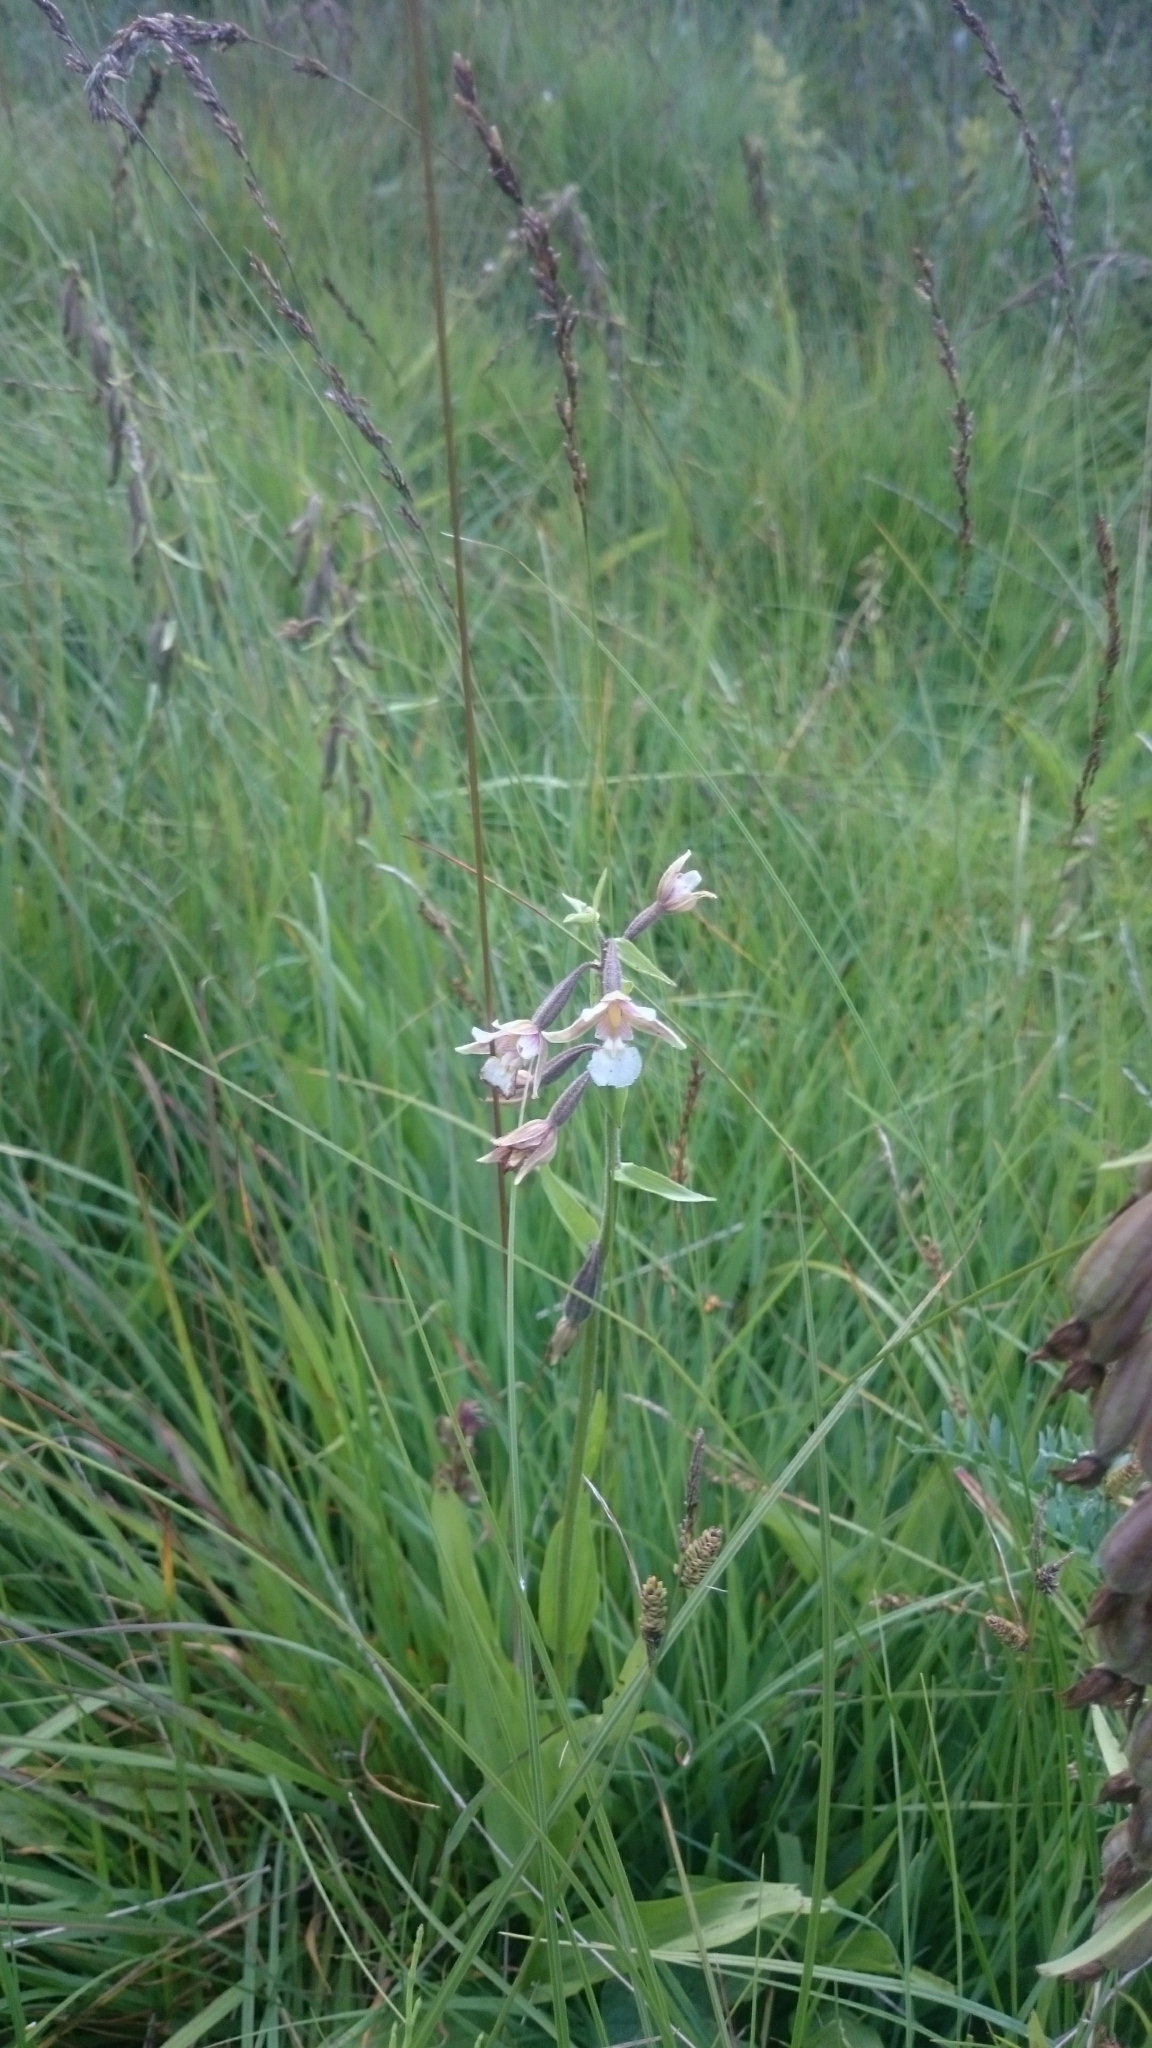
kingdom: Plantae
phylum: Tracheophyta
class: Liliopsida
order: Asparagales
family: Orchidaceae
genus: Epipactis
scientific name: Epipactis palustris
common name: Marsh helleborine
